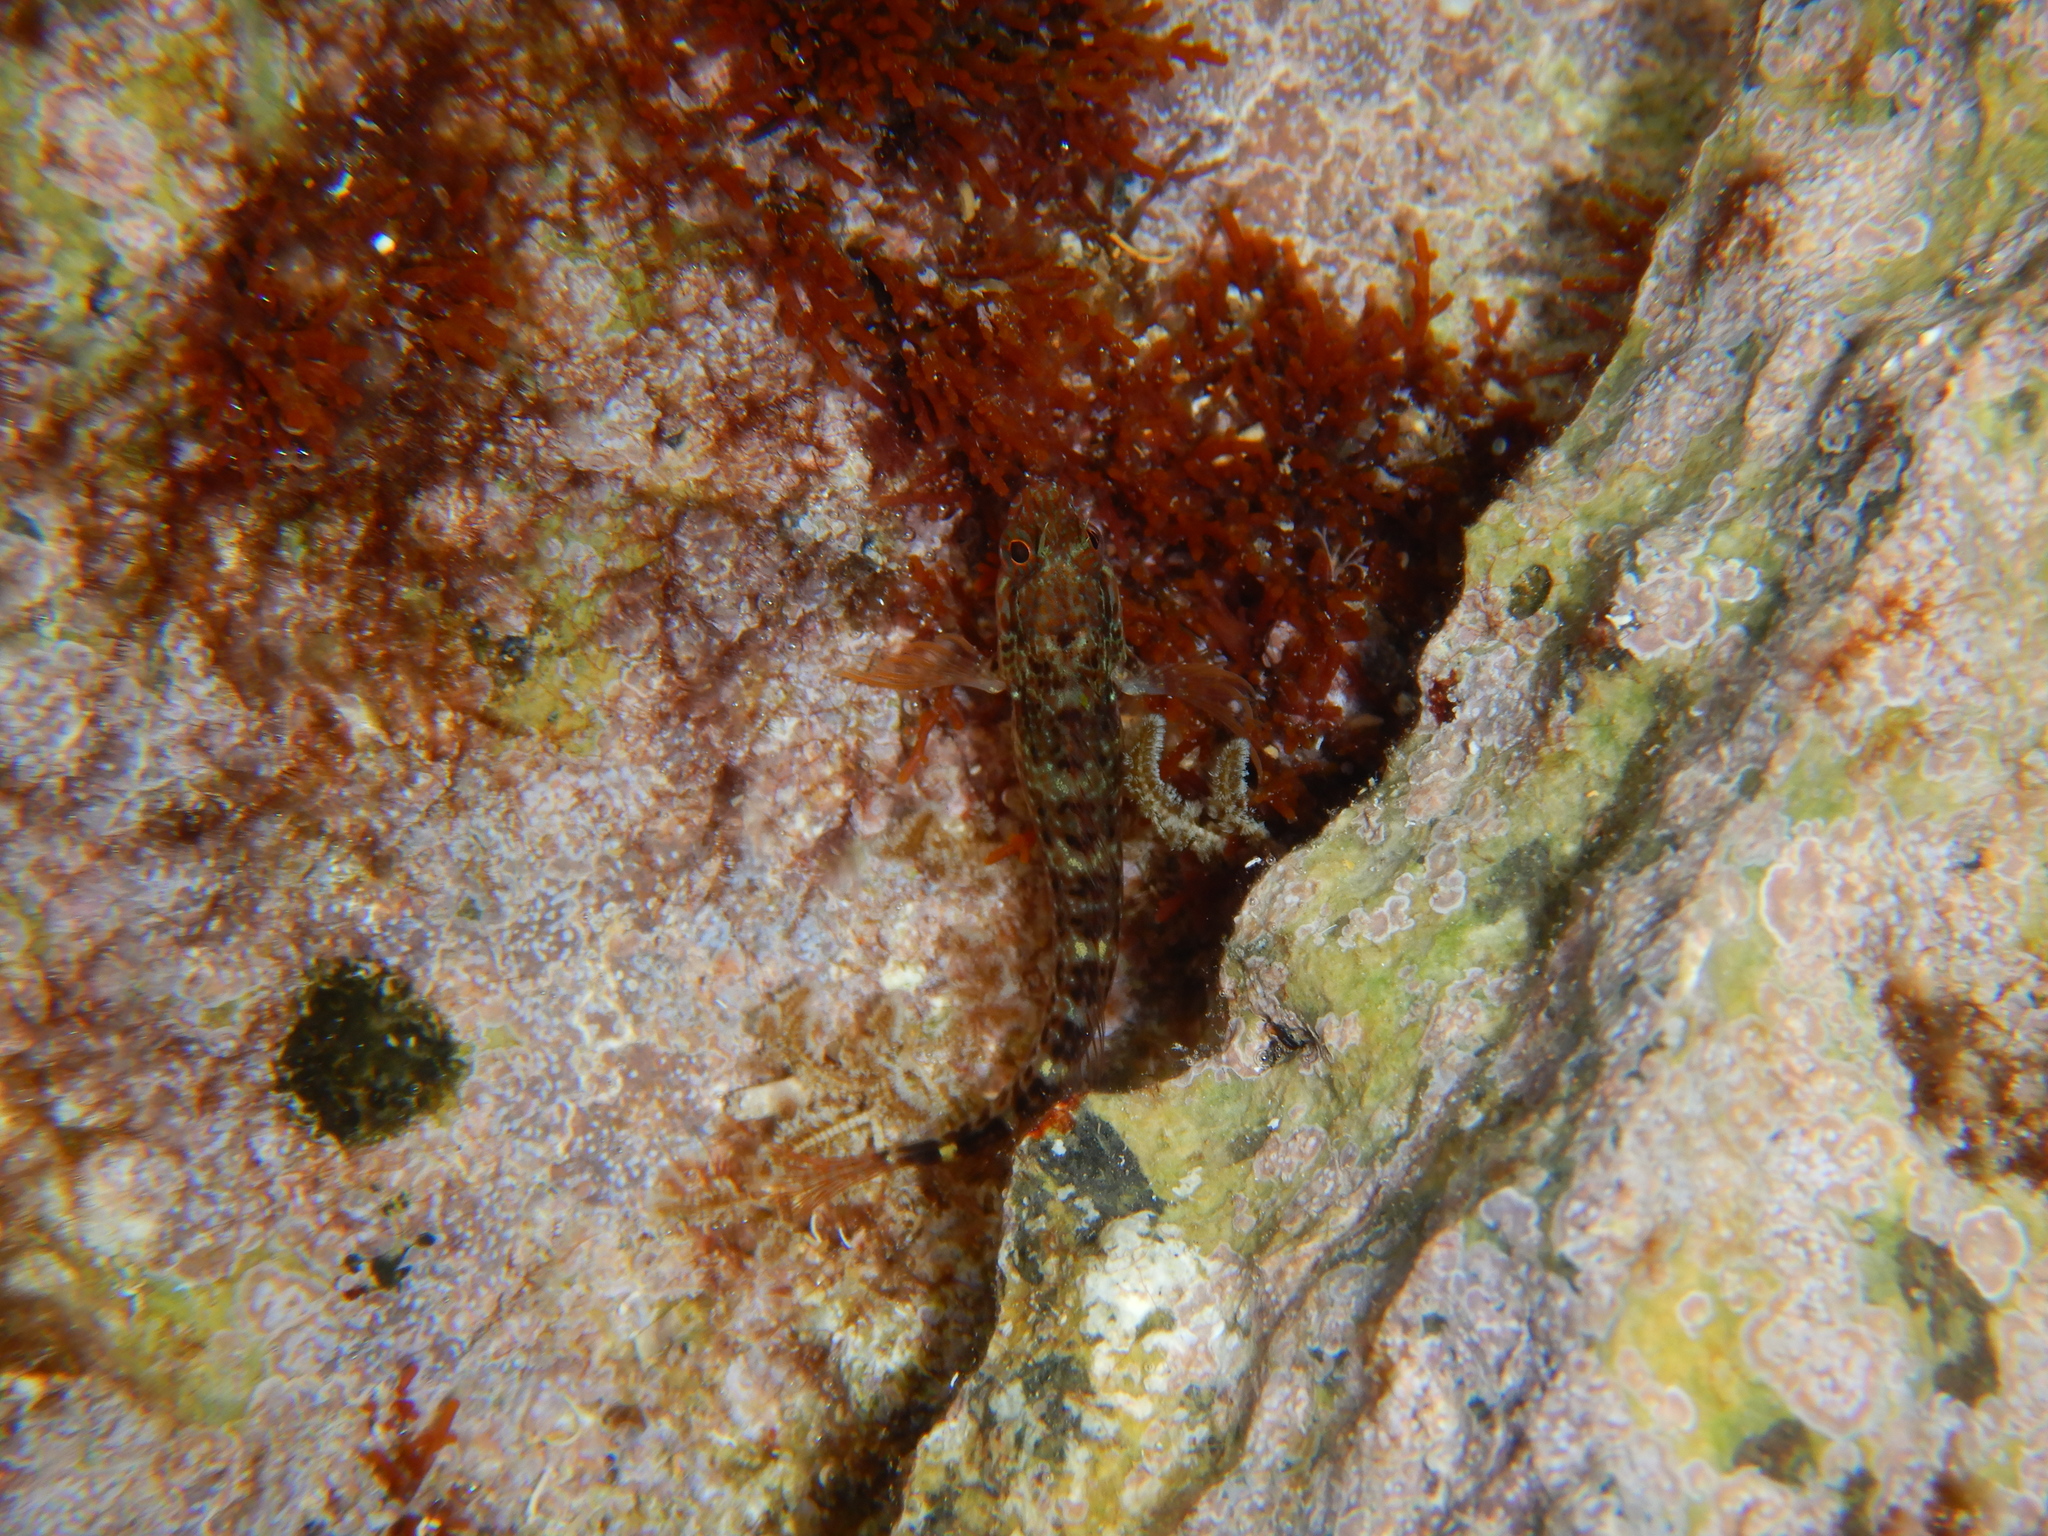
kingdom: Animalia
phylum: Chordata
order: Perciformes
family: Blenniidae
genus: Parablennius
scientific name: Parablennius zvonimiri
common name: Red blenny
